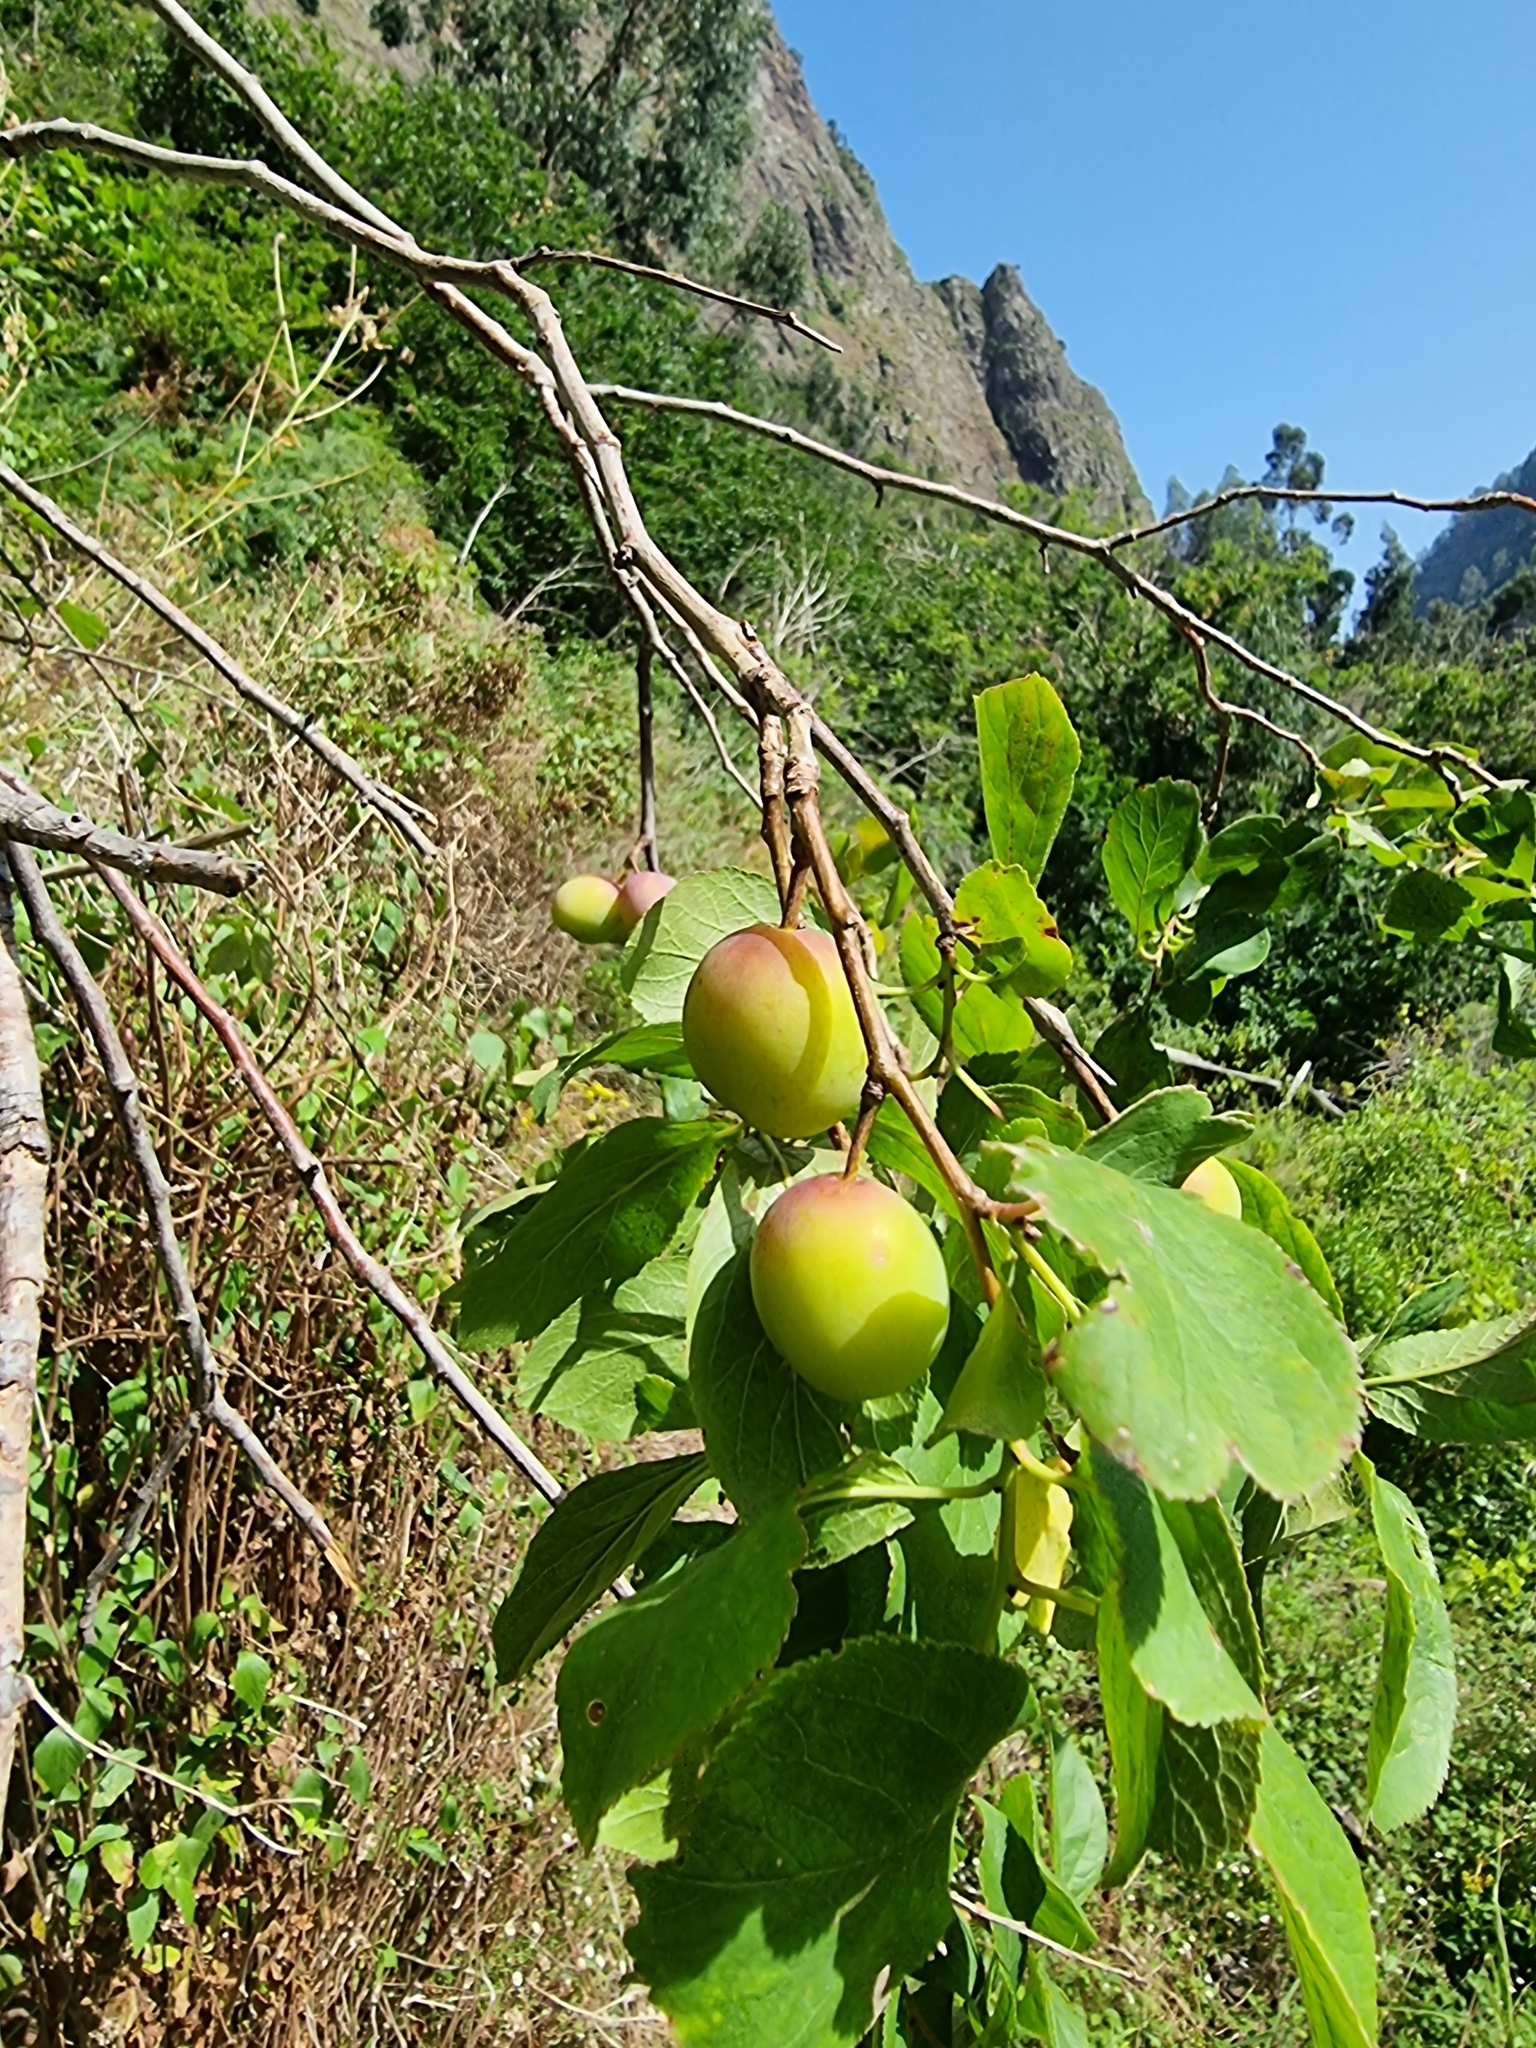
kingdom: Plantae
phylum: Tracheophyta
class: Magnoliopsida
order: Rosales
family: Rosaceae
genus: Prunus
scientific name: Prunus domestica
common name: Wild plum
